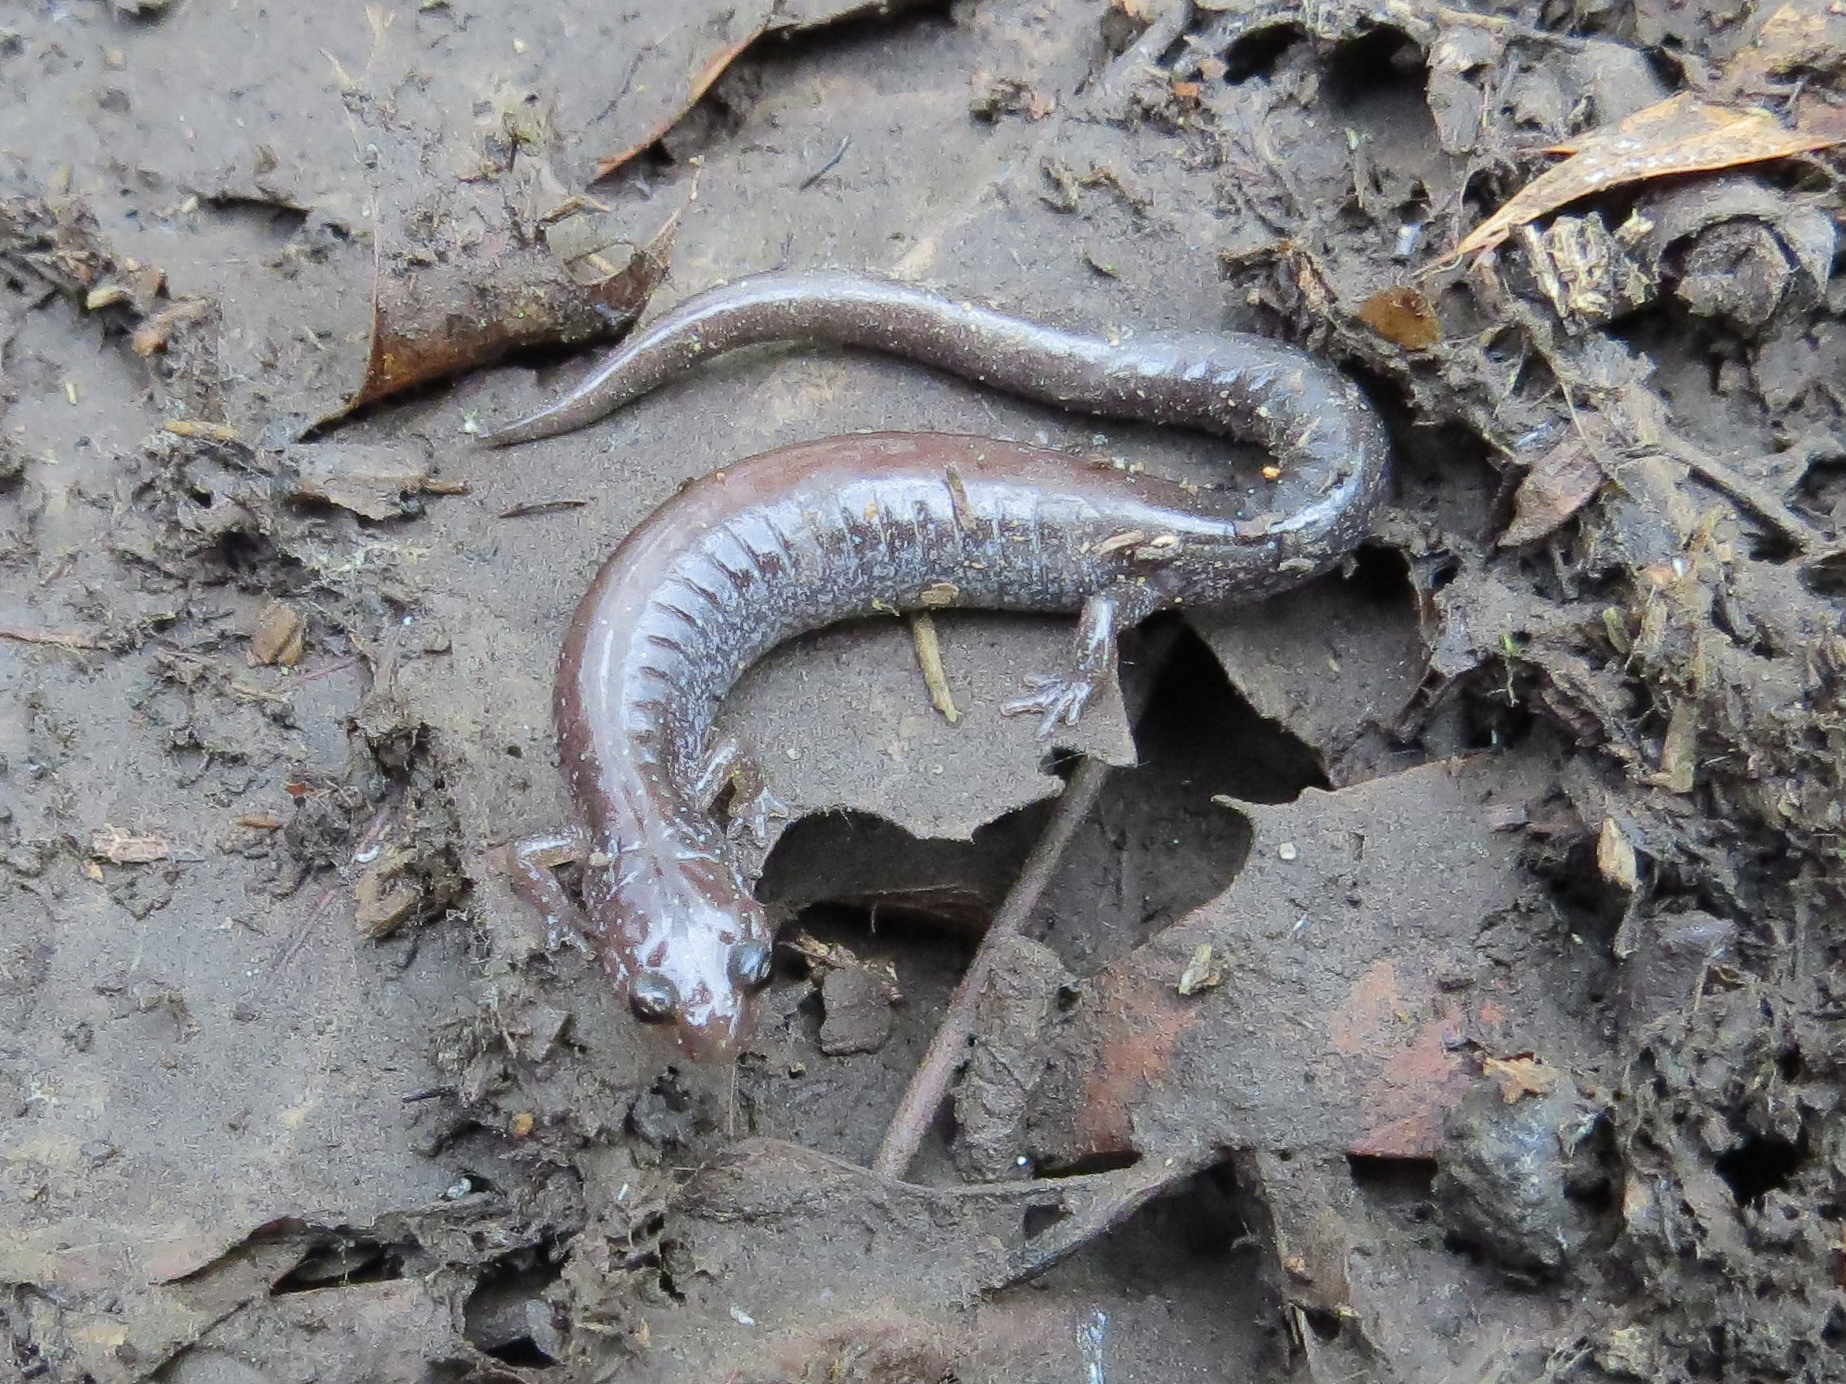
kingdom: Animalia
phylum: Chordata
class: Amphibia
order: Caudata
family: Plethodontidae
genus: Plethodon
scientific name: Plethodon cinereus
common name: Redback salamander
